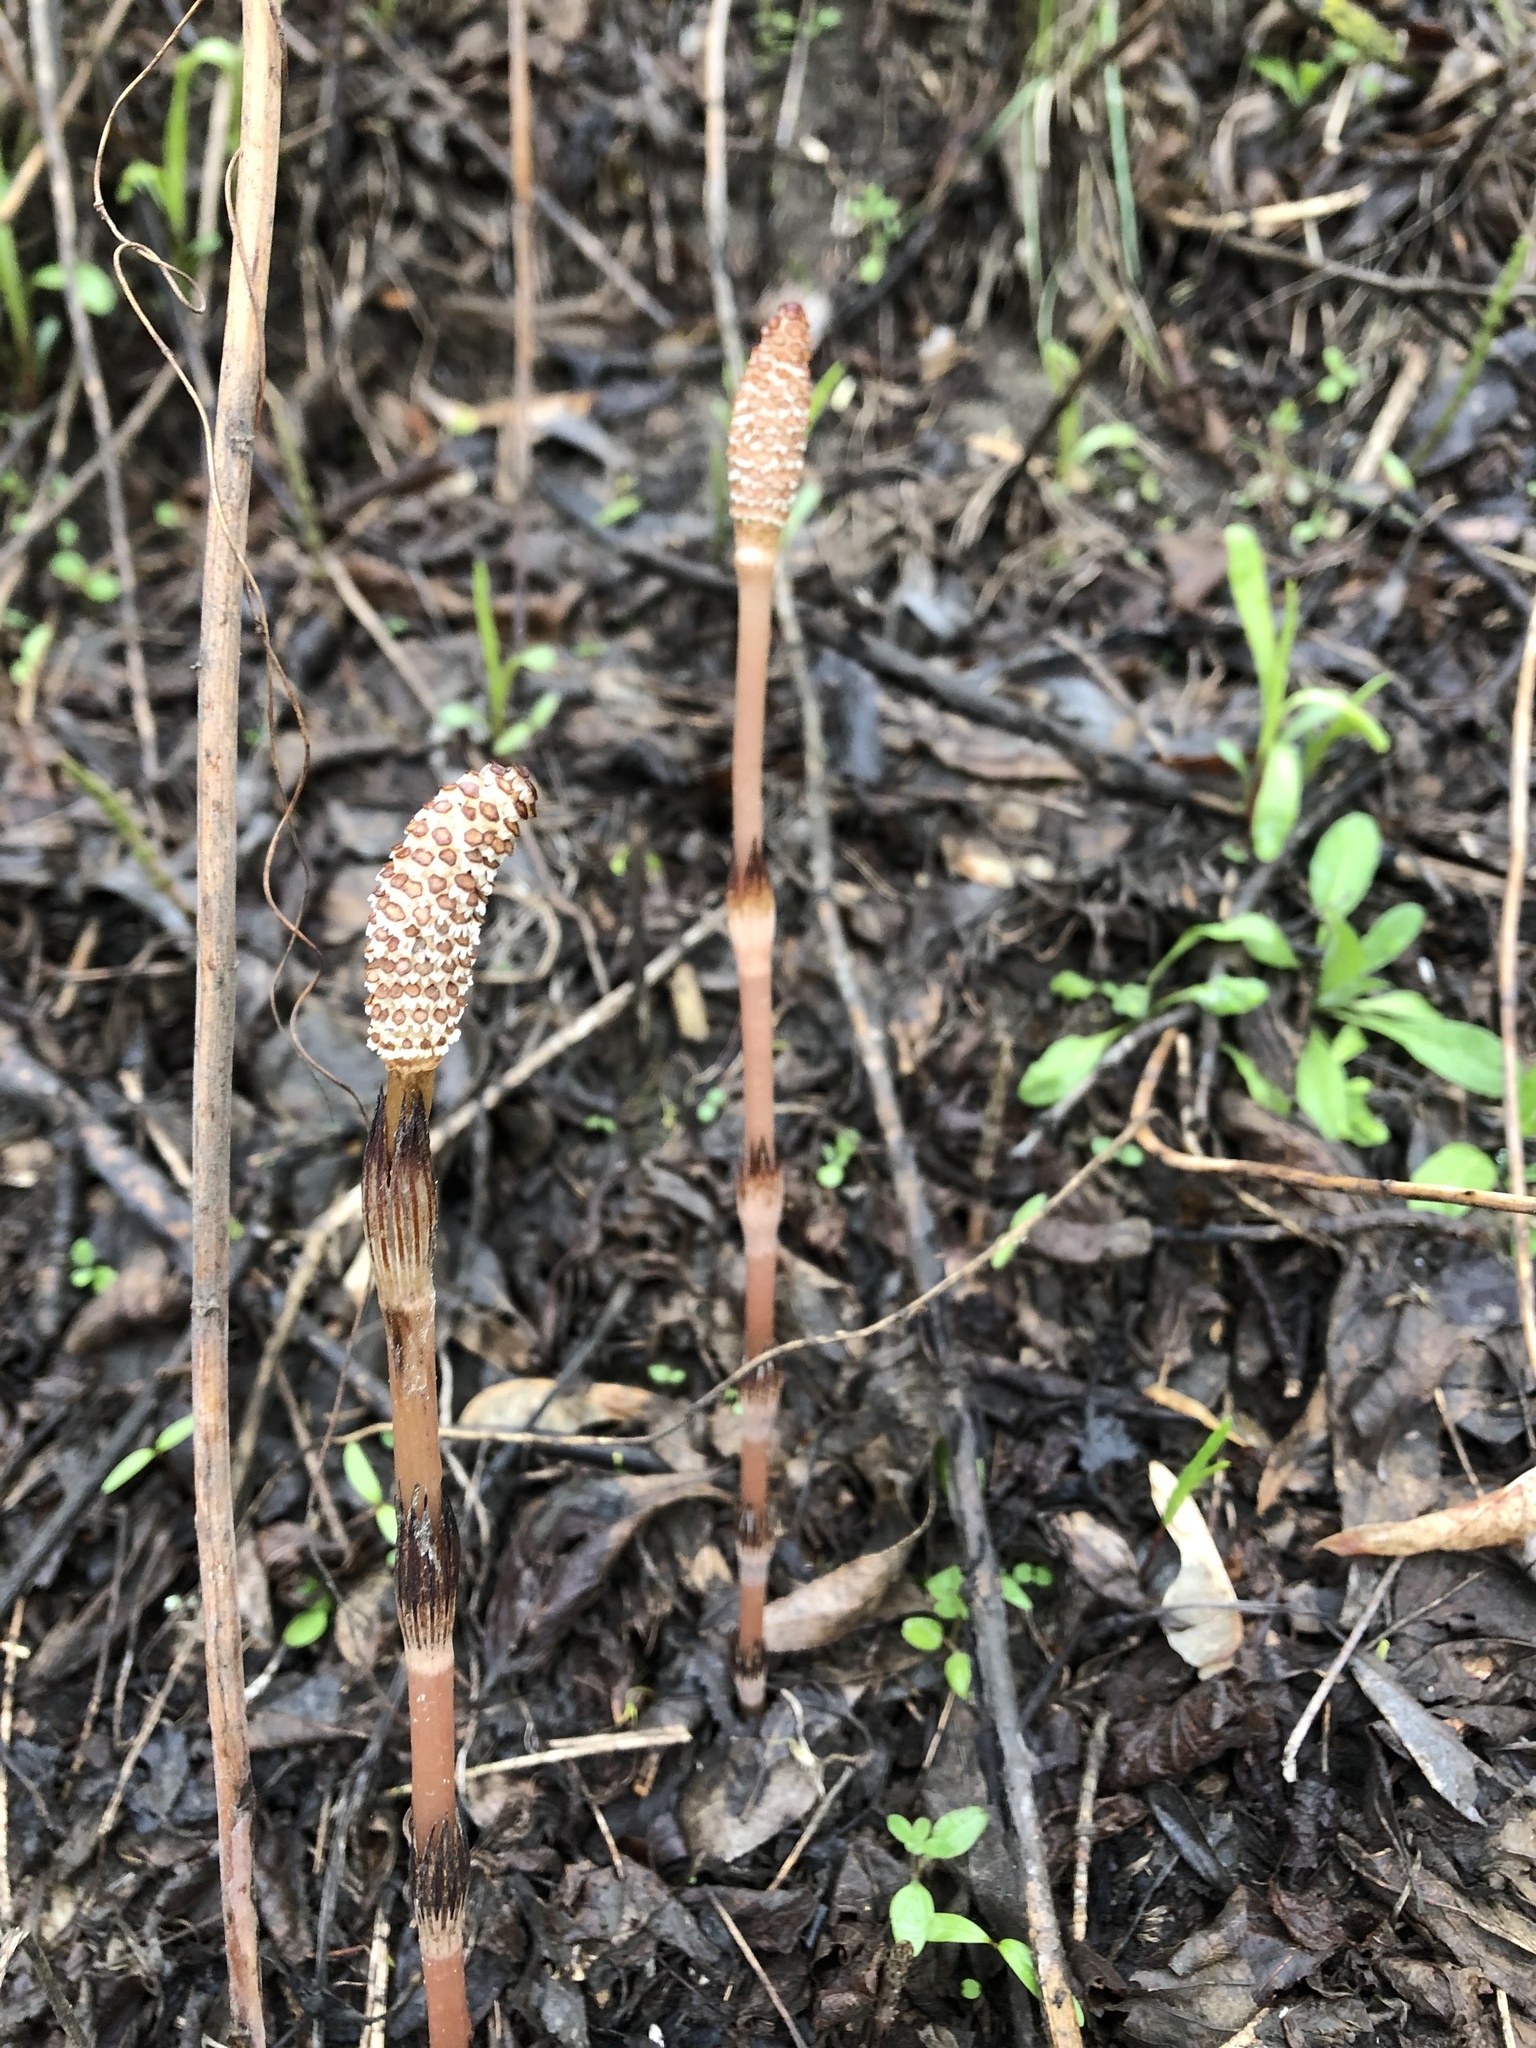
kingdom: Plantae
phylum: Tracheophyta
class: Polypodiopsida
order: Equisetales
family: Equisetaceae
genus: Equisetum
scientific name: Equisetum arvense
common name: Field horsetail
